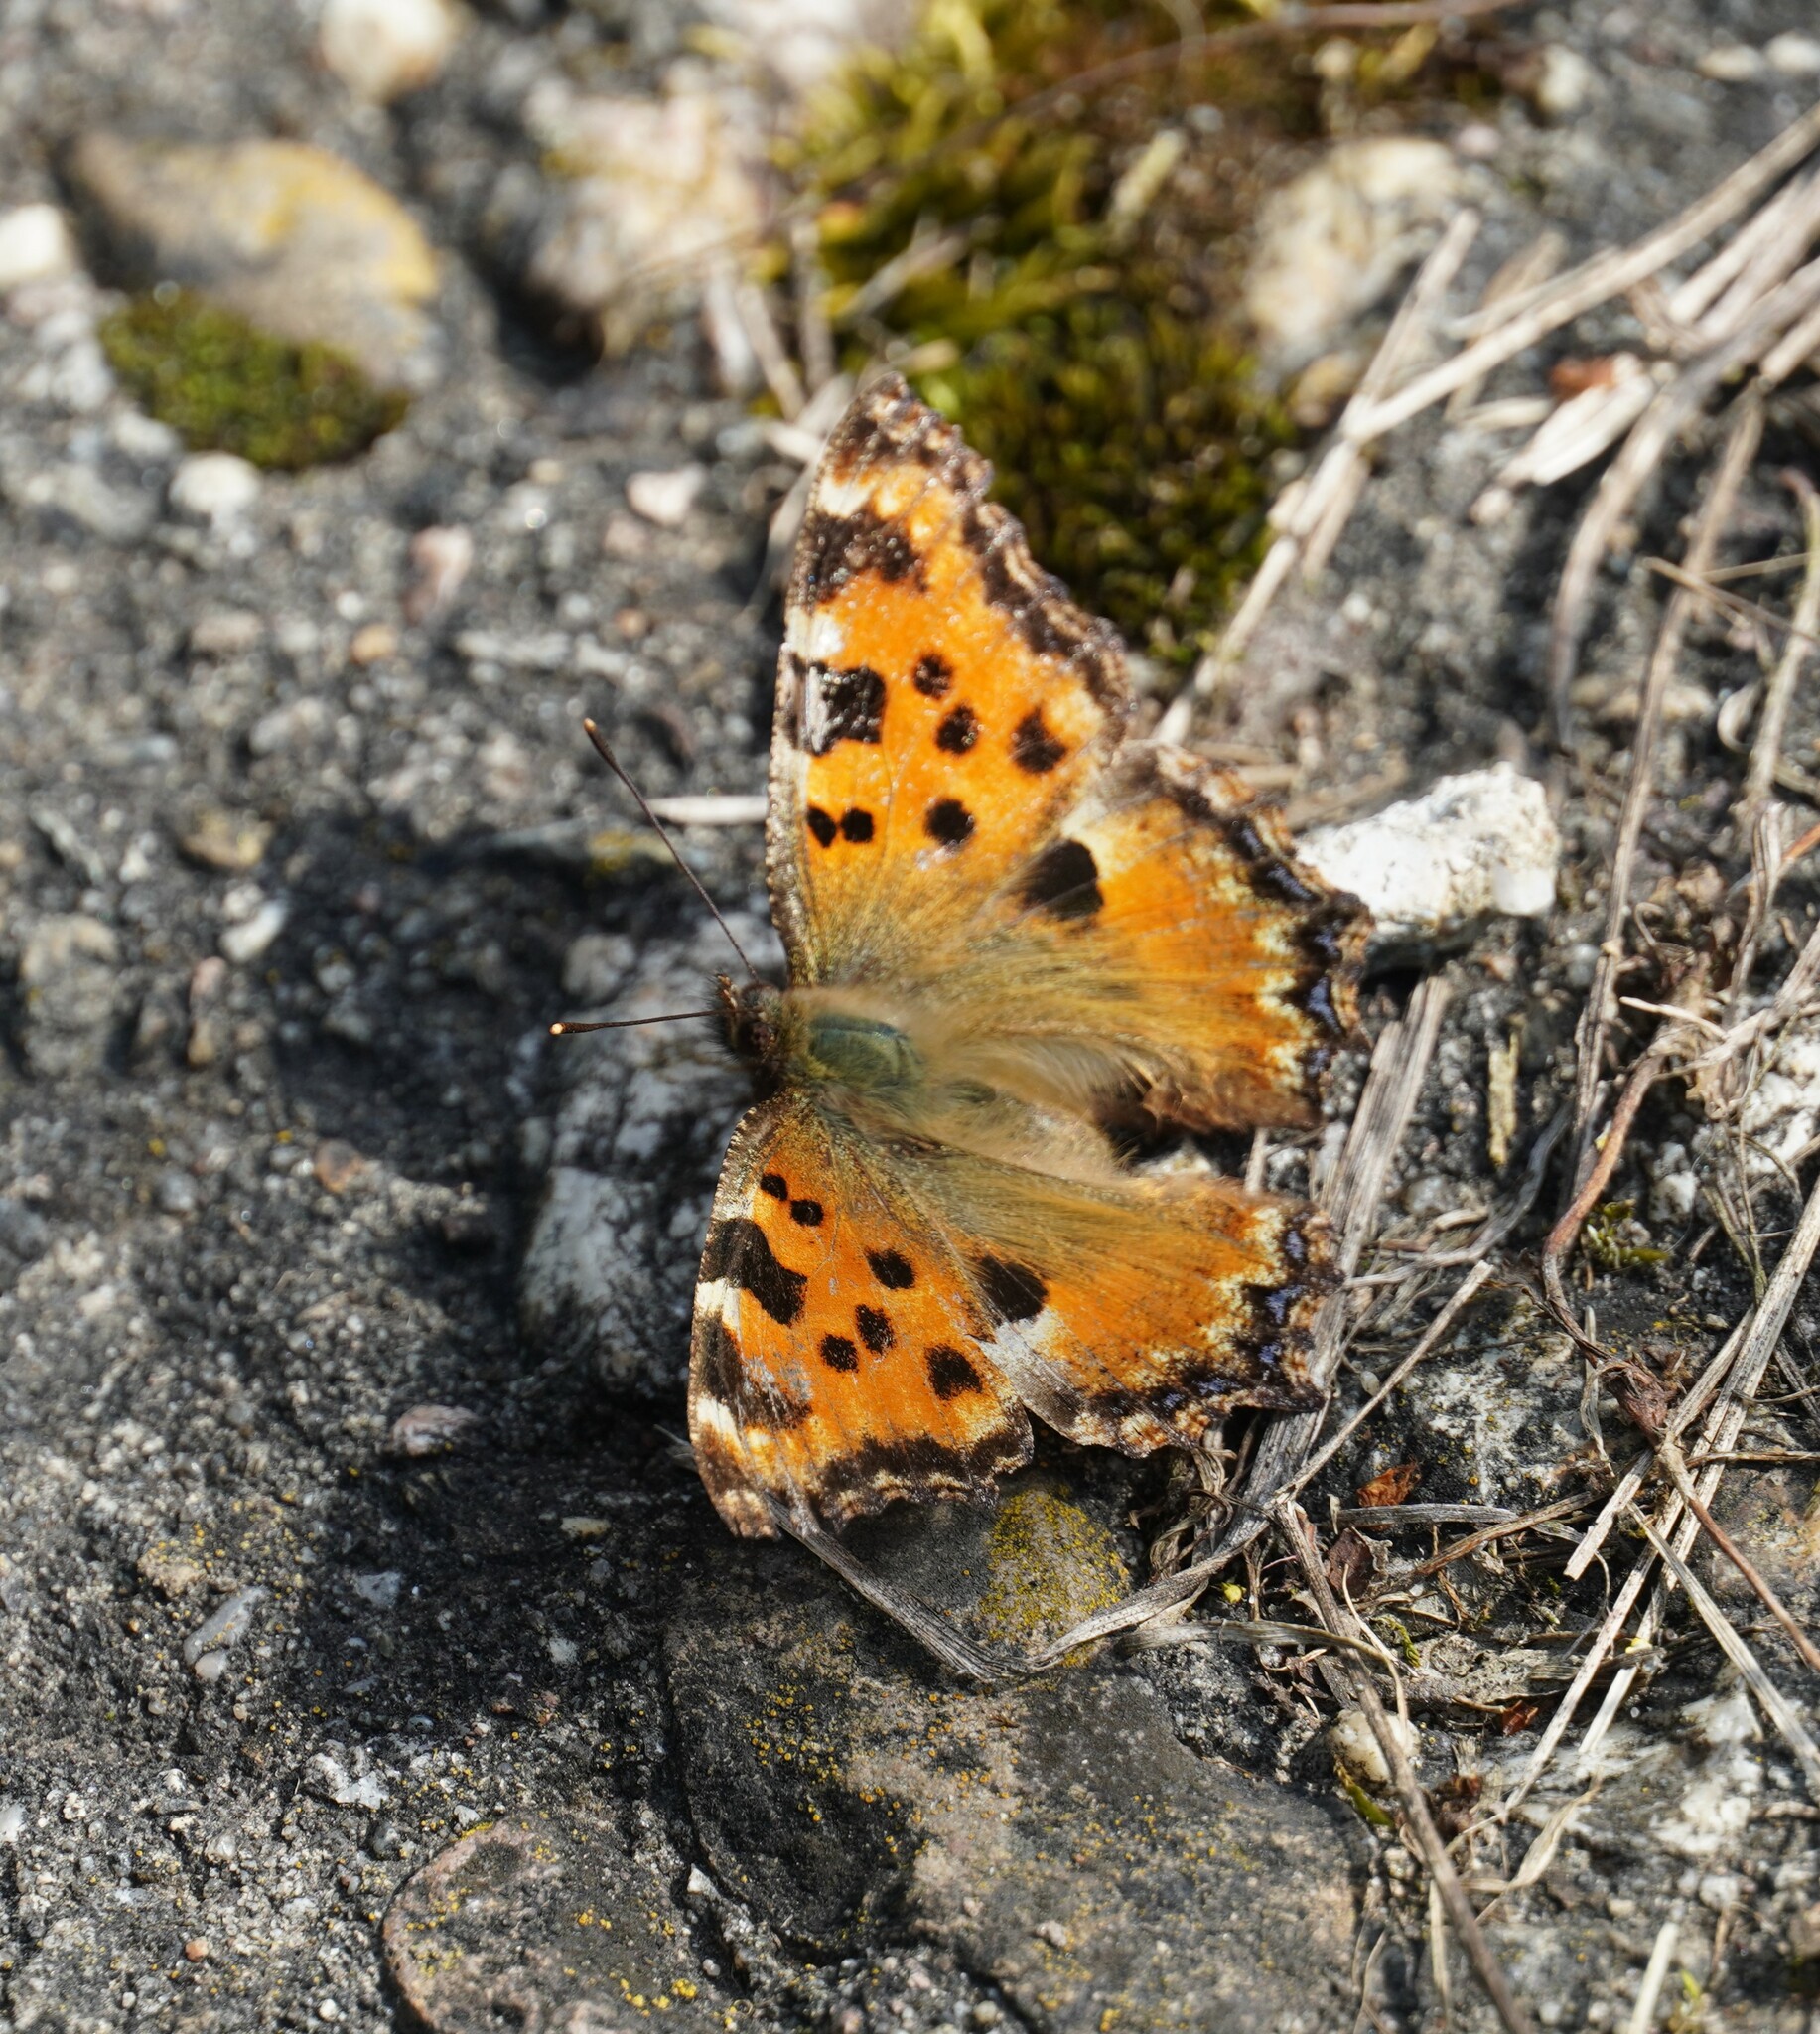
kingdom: Animalia
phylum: Arthropoda
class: Insecta
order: Lepidoptera
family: Nymphalidae
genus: Nymphalis
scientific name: Nymphalis polychloros
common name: Large tortoiseshell
